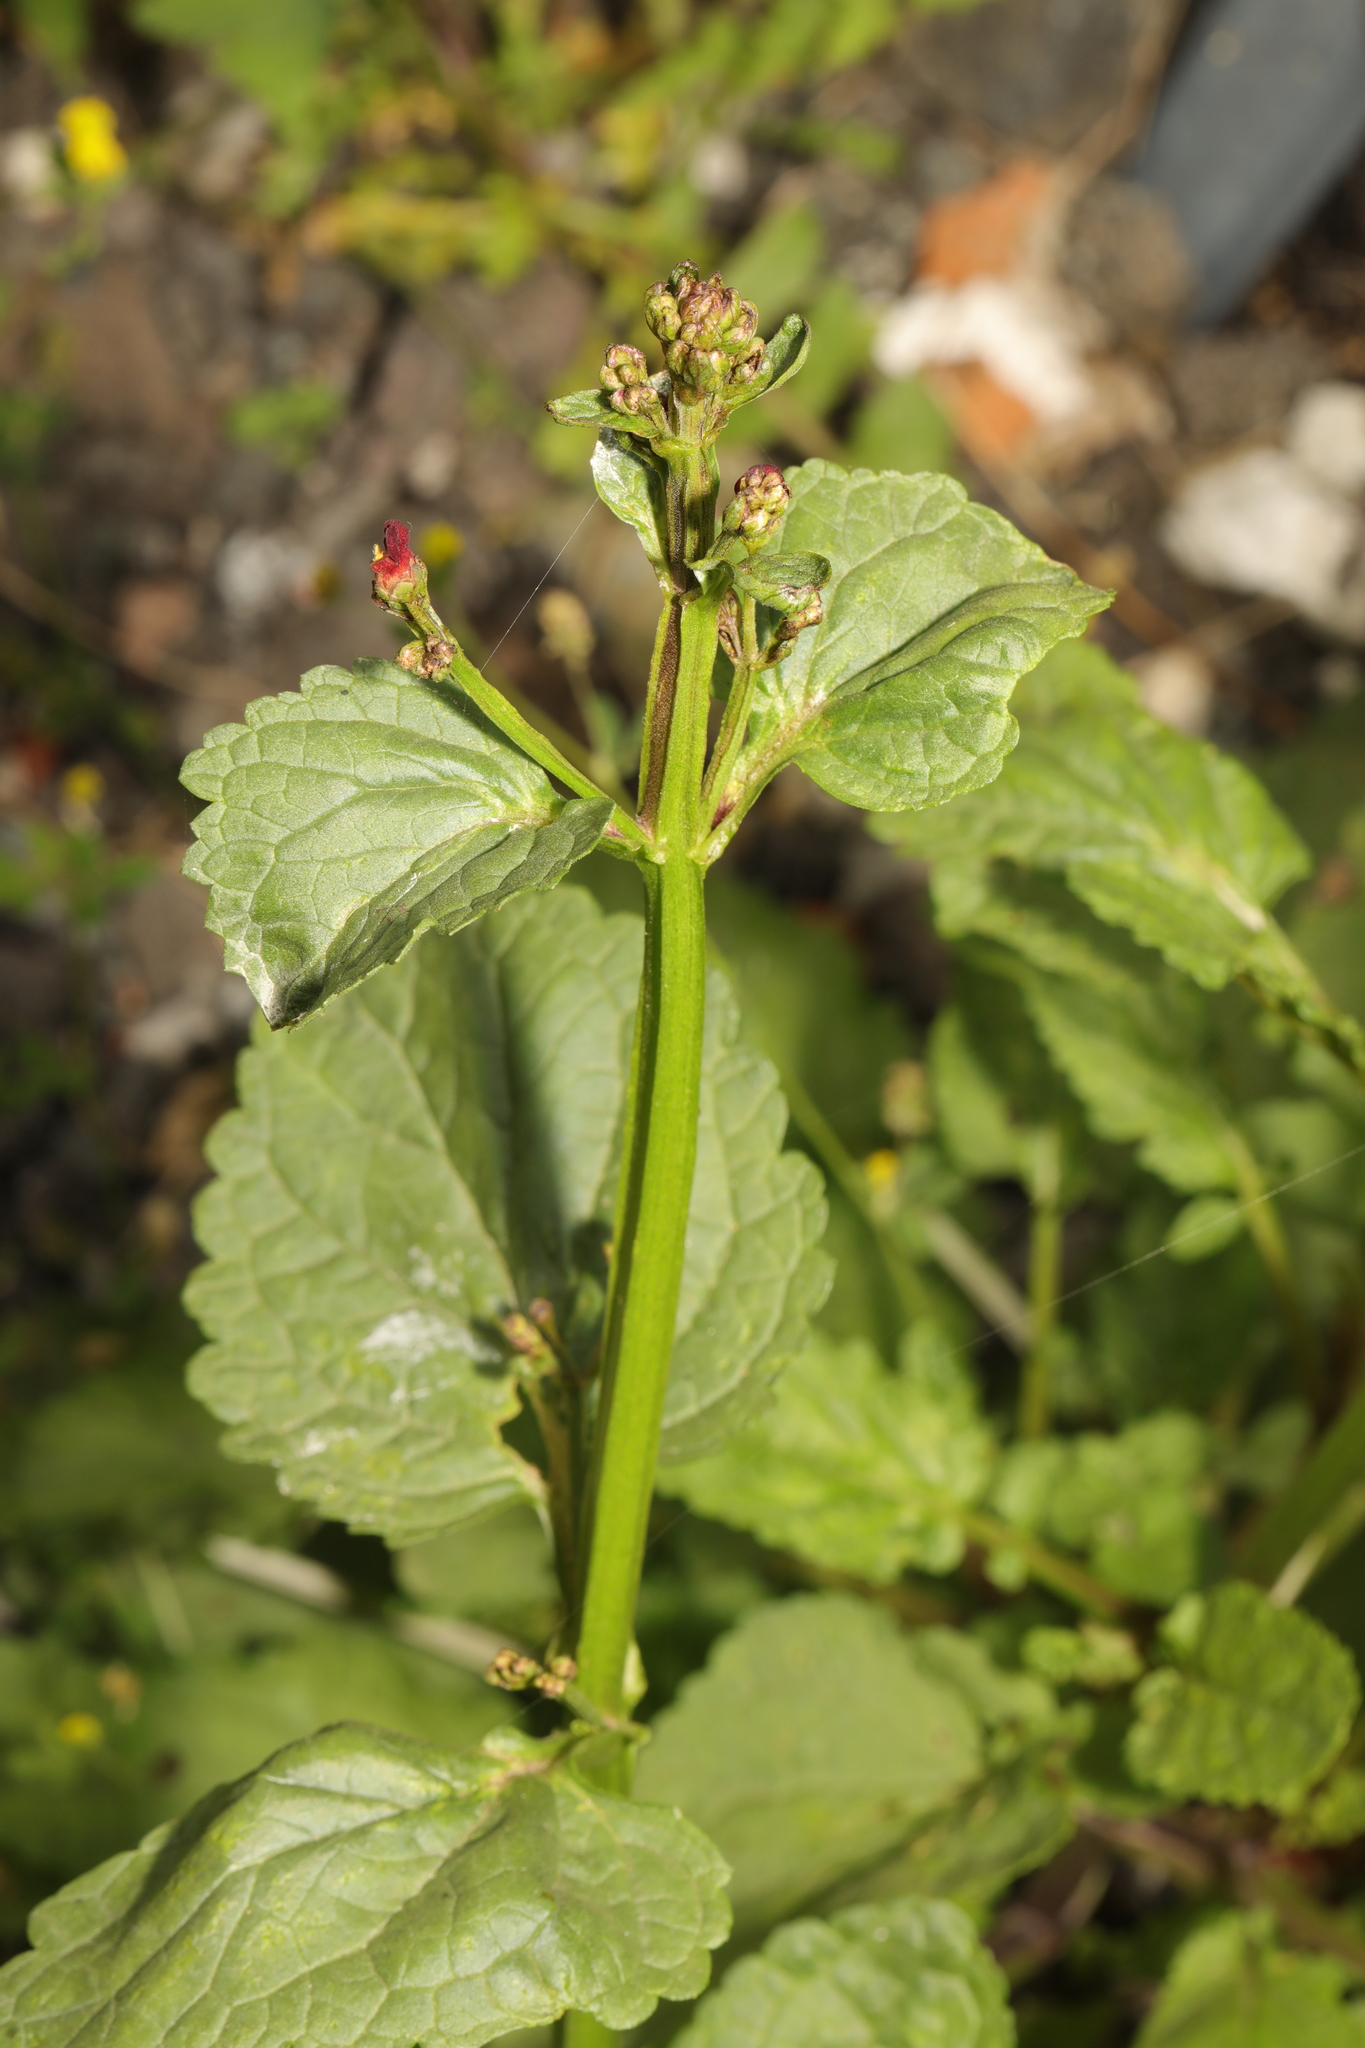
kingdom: Plantae
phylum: Tracheophyta
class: Magnoliopsida
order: Lamiales
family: Scrophulariaceae
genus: Scrophularia
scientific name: Scrophularia auriculata
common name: Water betony
